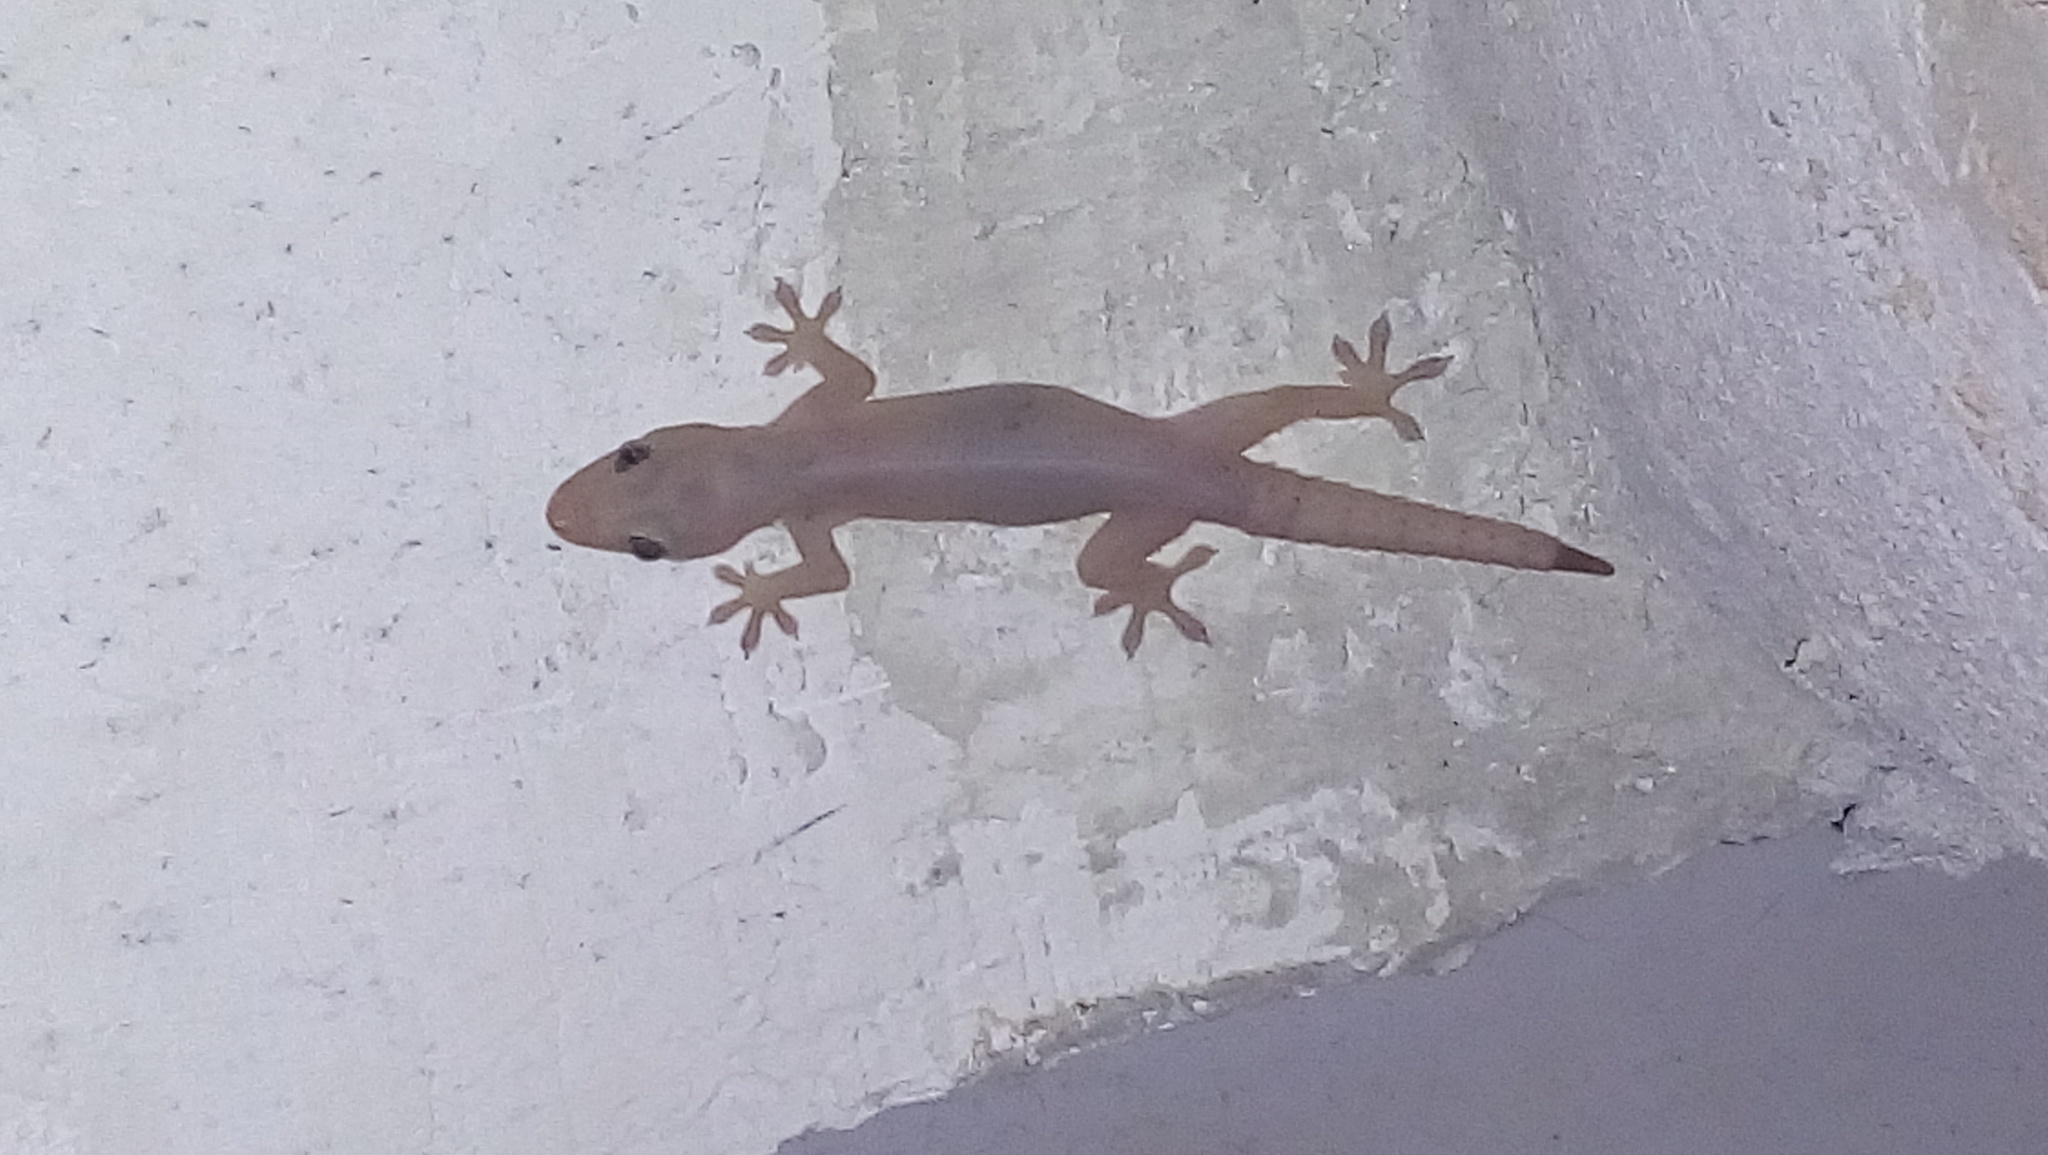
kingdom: Animalia
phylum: Chordata
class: Squamata
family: Gekkonidae
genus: Hemidactylus
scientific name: Hemidactylus frenatus
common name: Common house gecko
